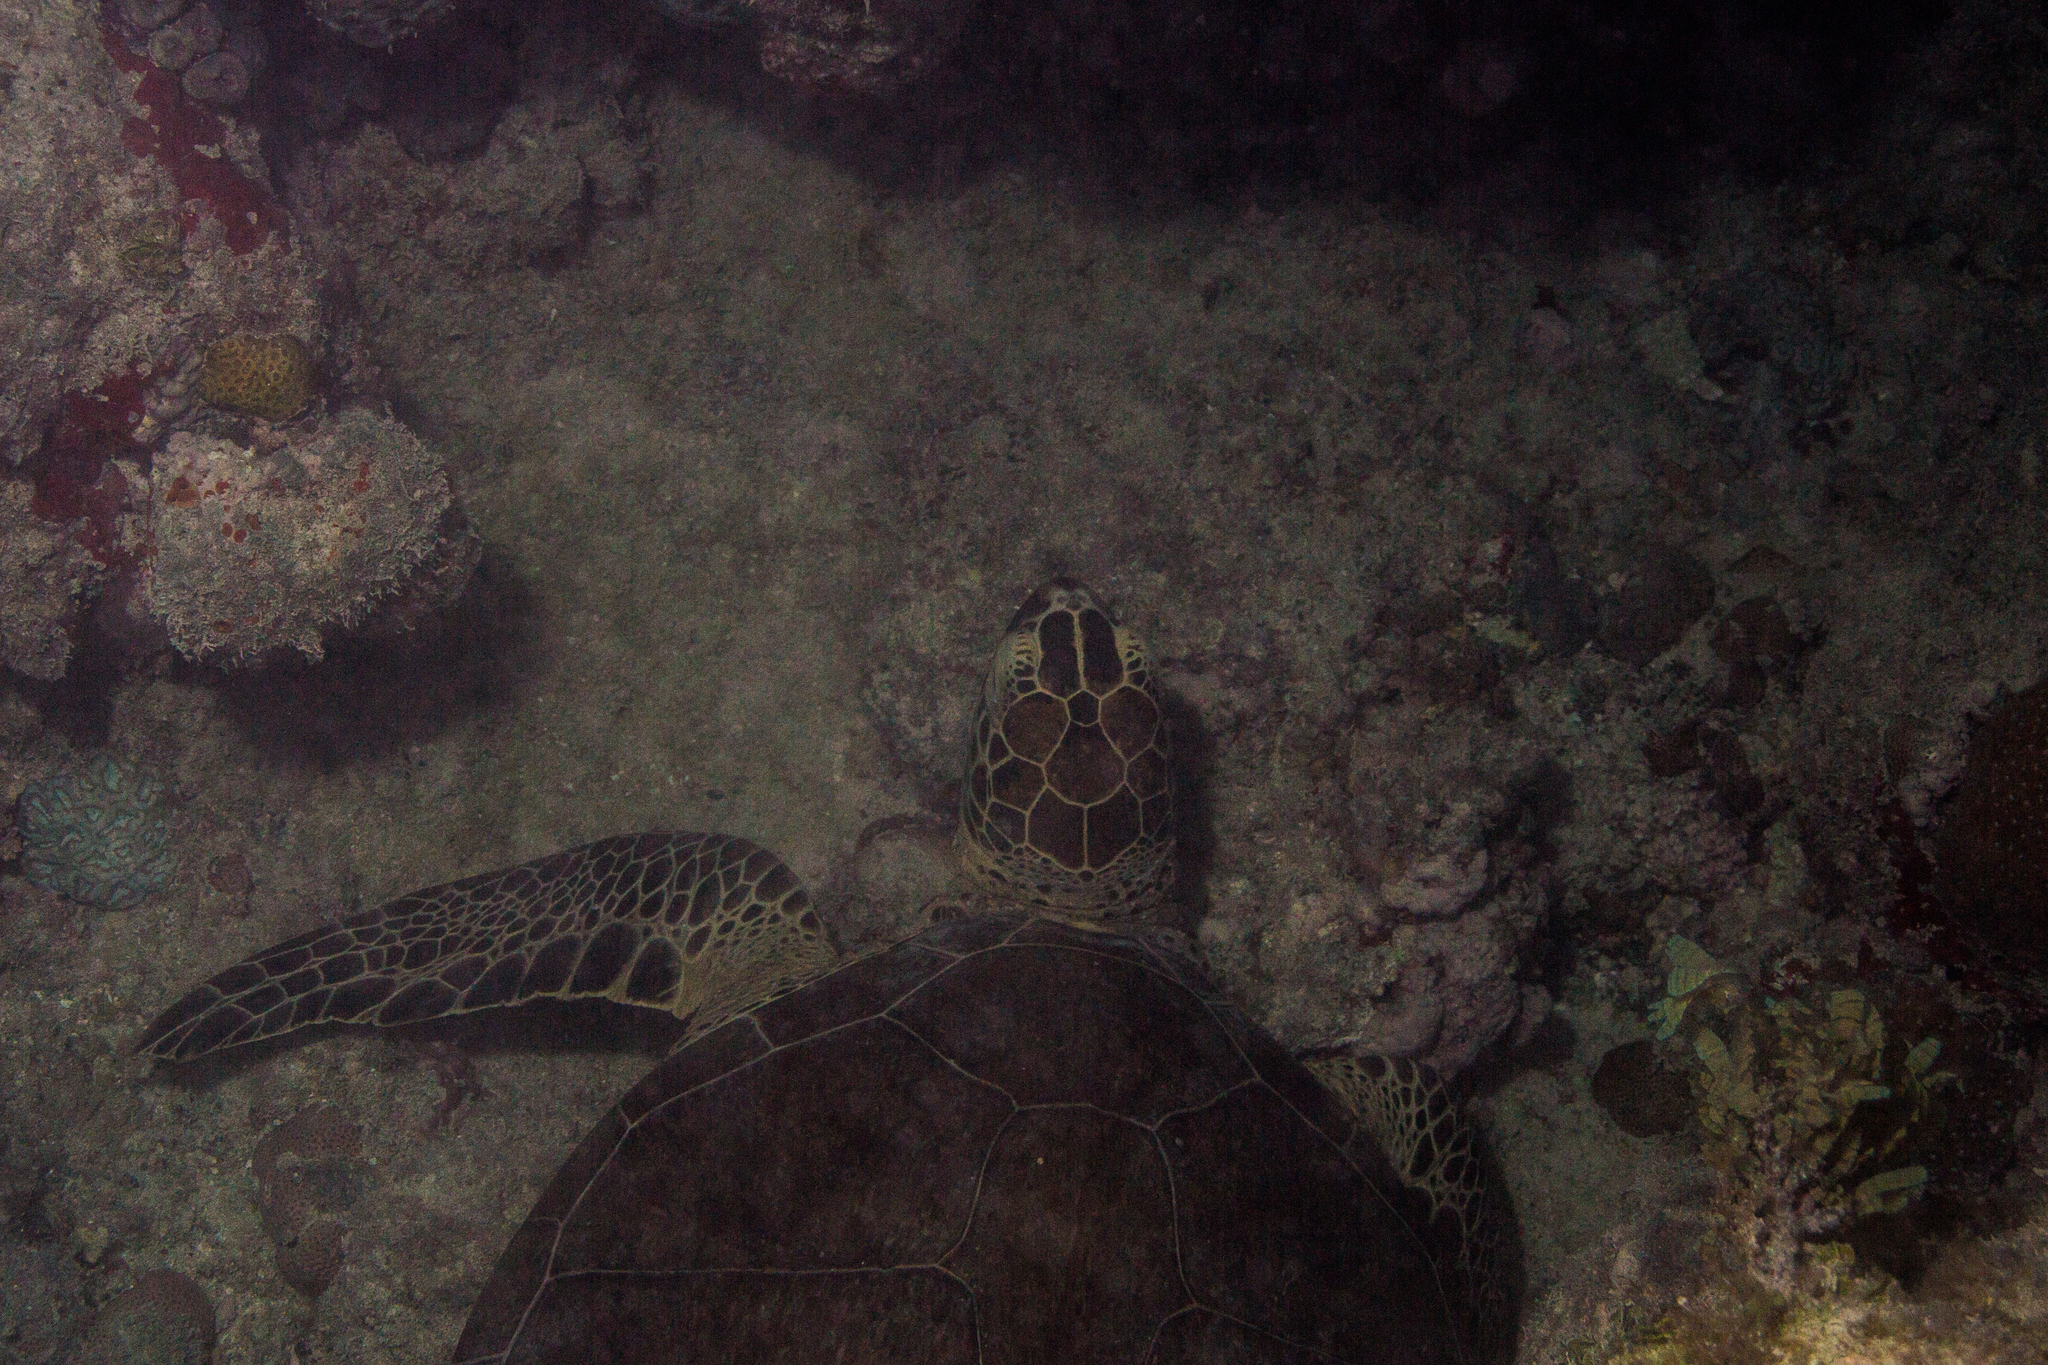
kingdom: Animalia
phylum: Chordata
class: Testudines
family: Cheloniidae
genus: Chelonia
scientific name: Chelonia mydas
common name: Green turtle
